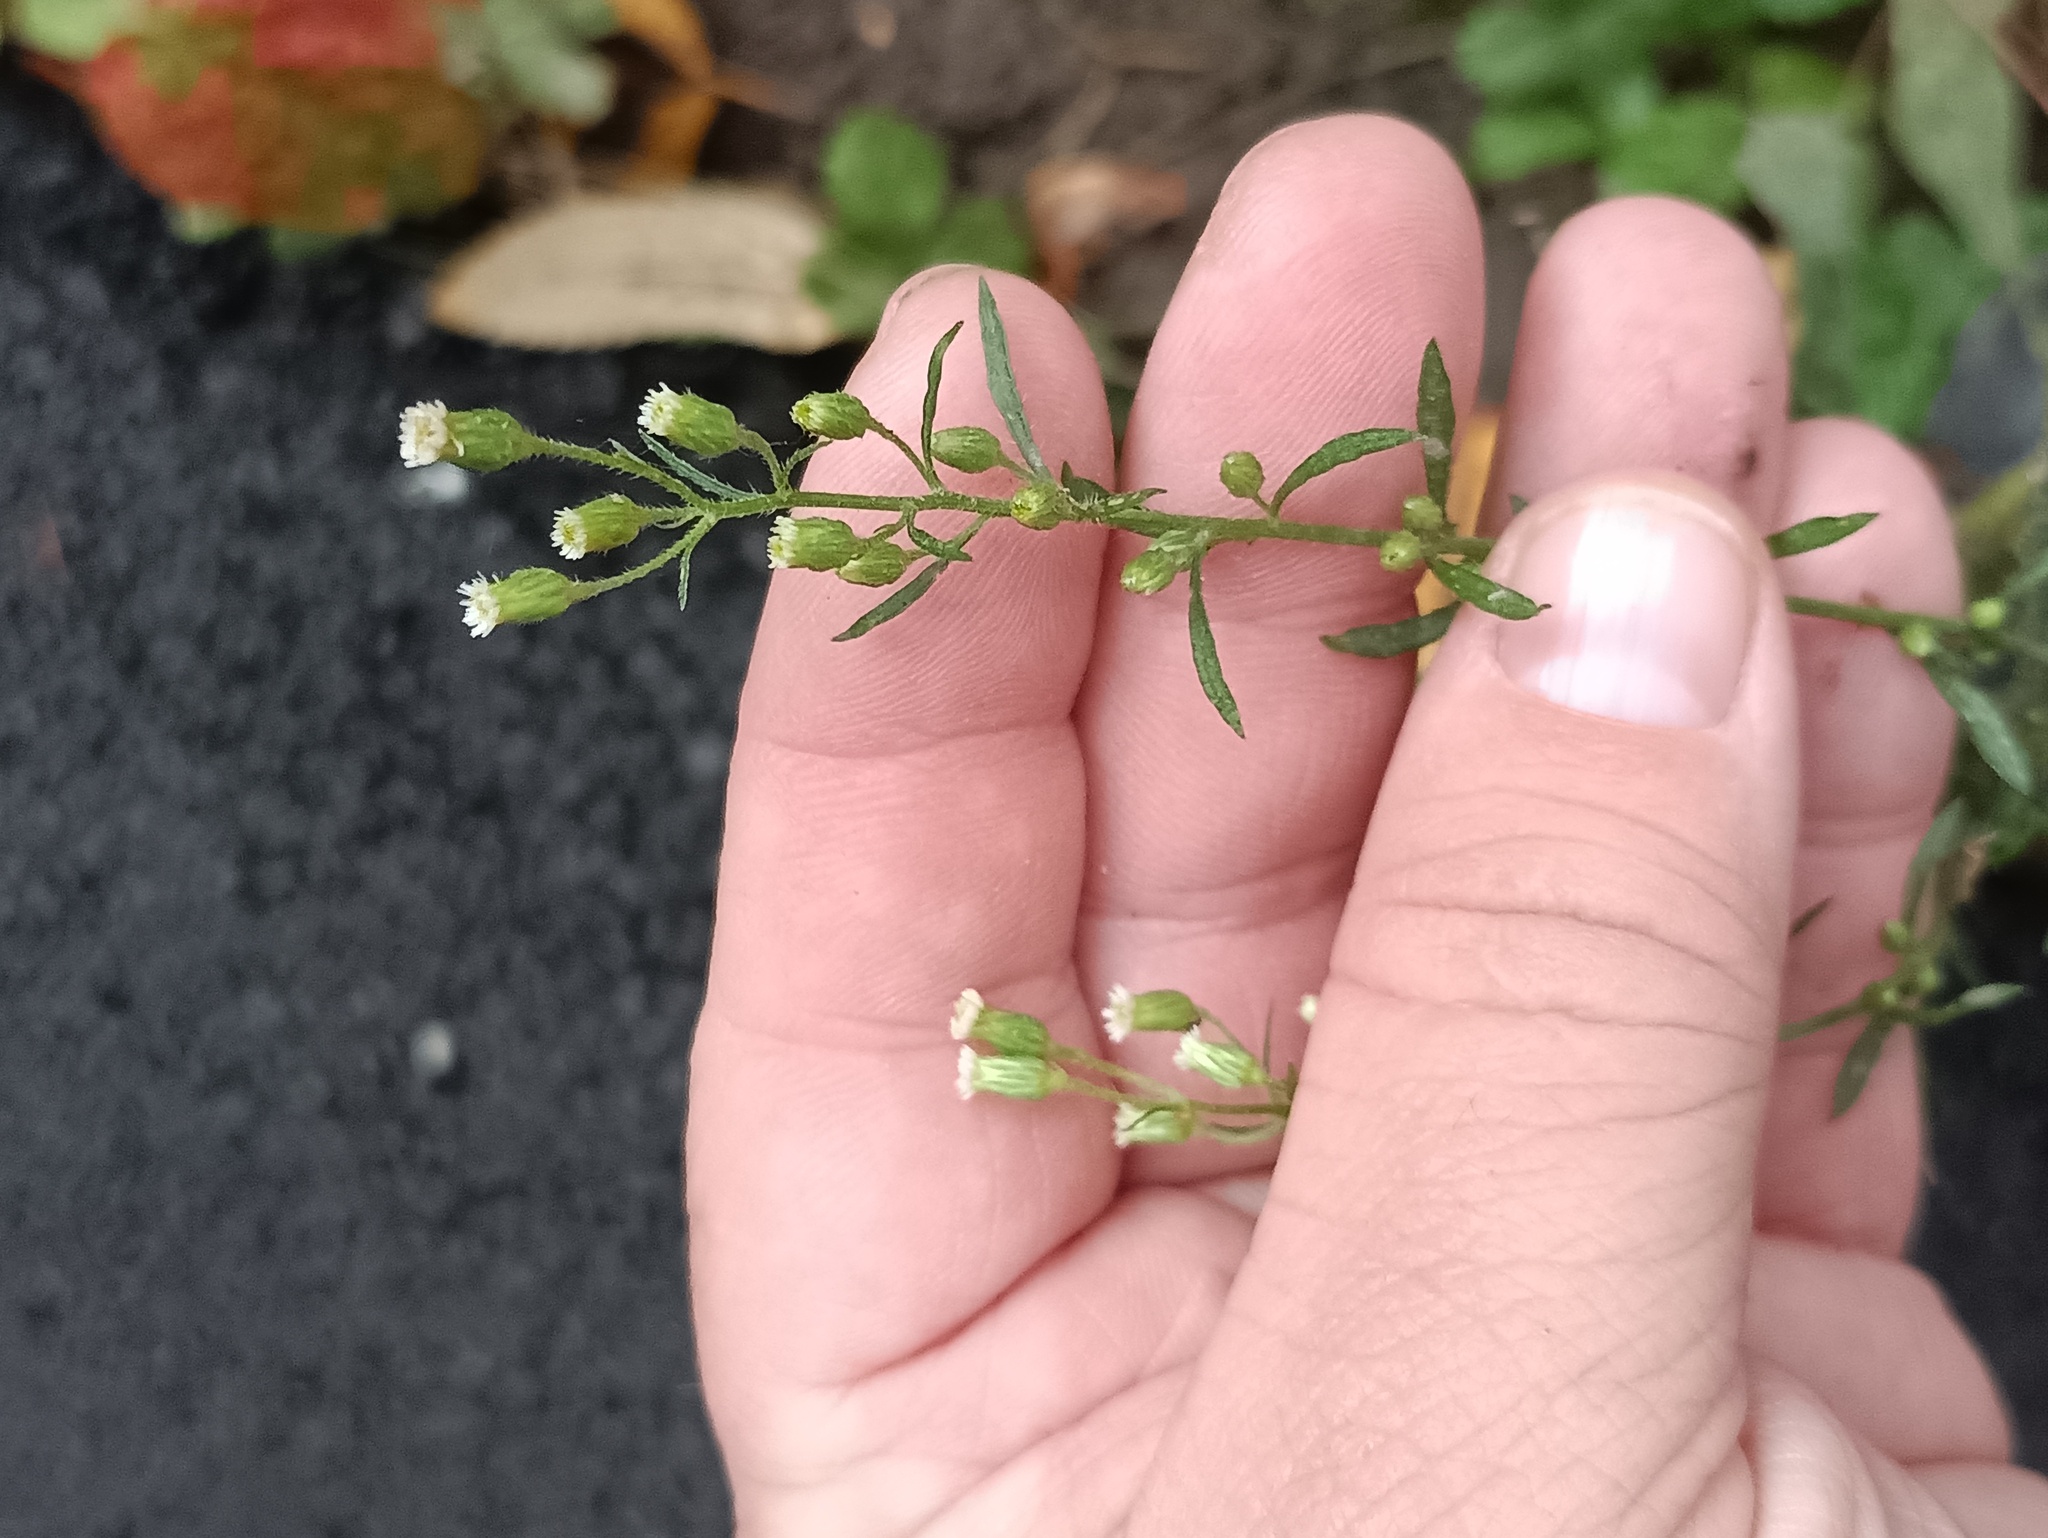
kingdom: Plantae
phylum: Tracheophyta
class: Magnoliopsida
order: Asterales
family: Asteraceae
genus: Erigeron
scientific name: Erigeron canadensis
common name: Canadian fleabane
